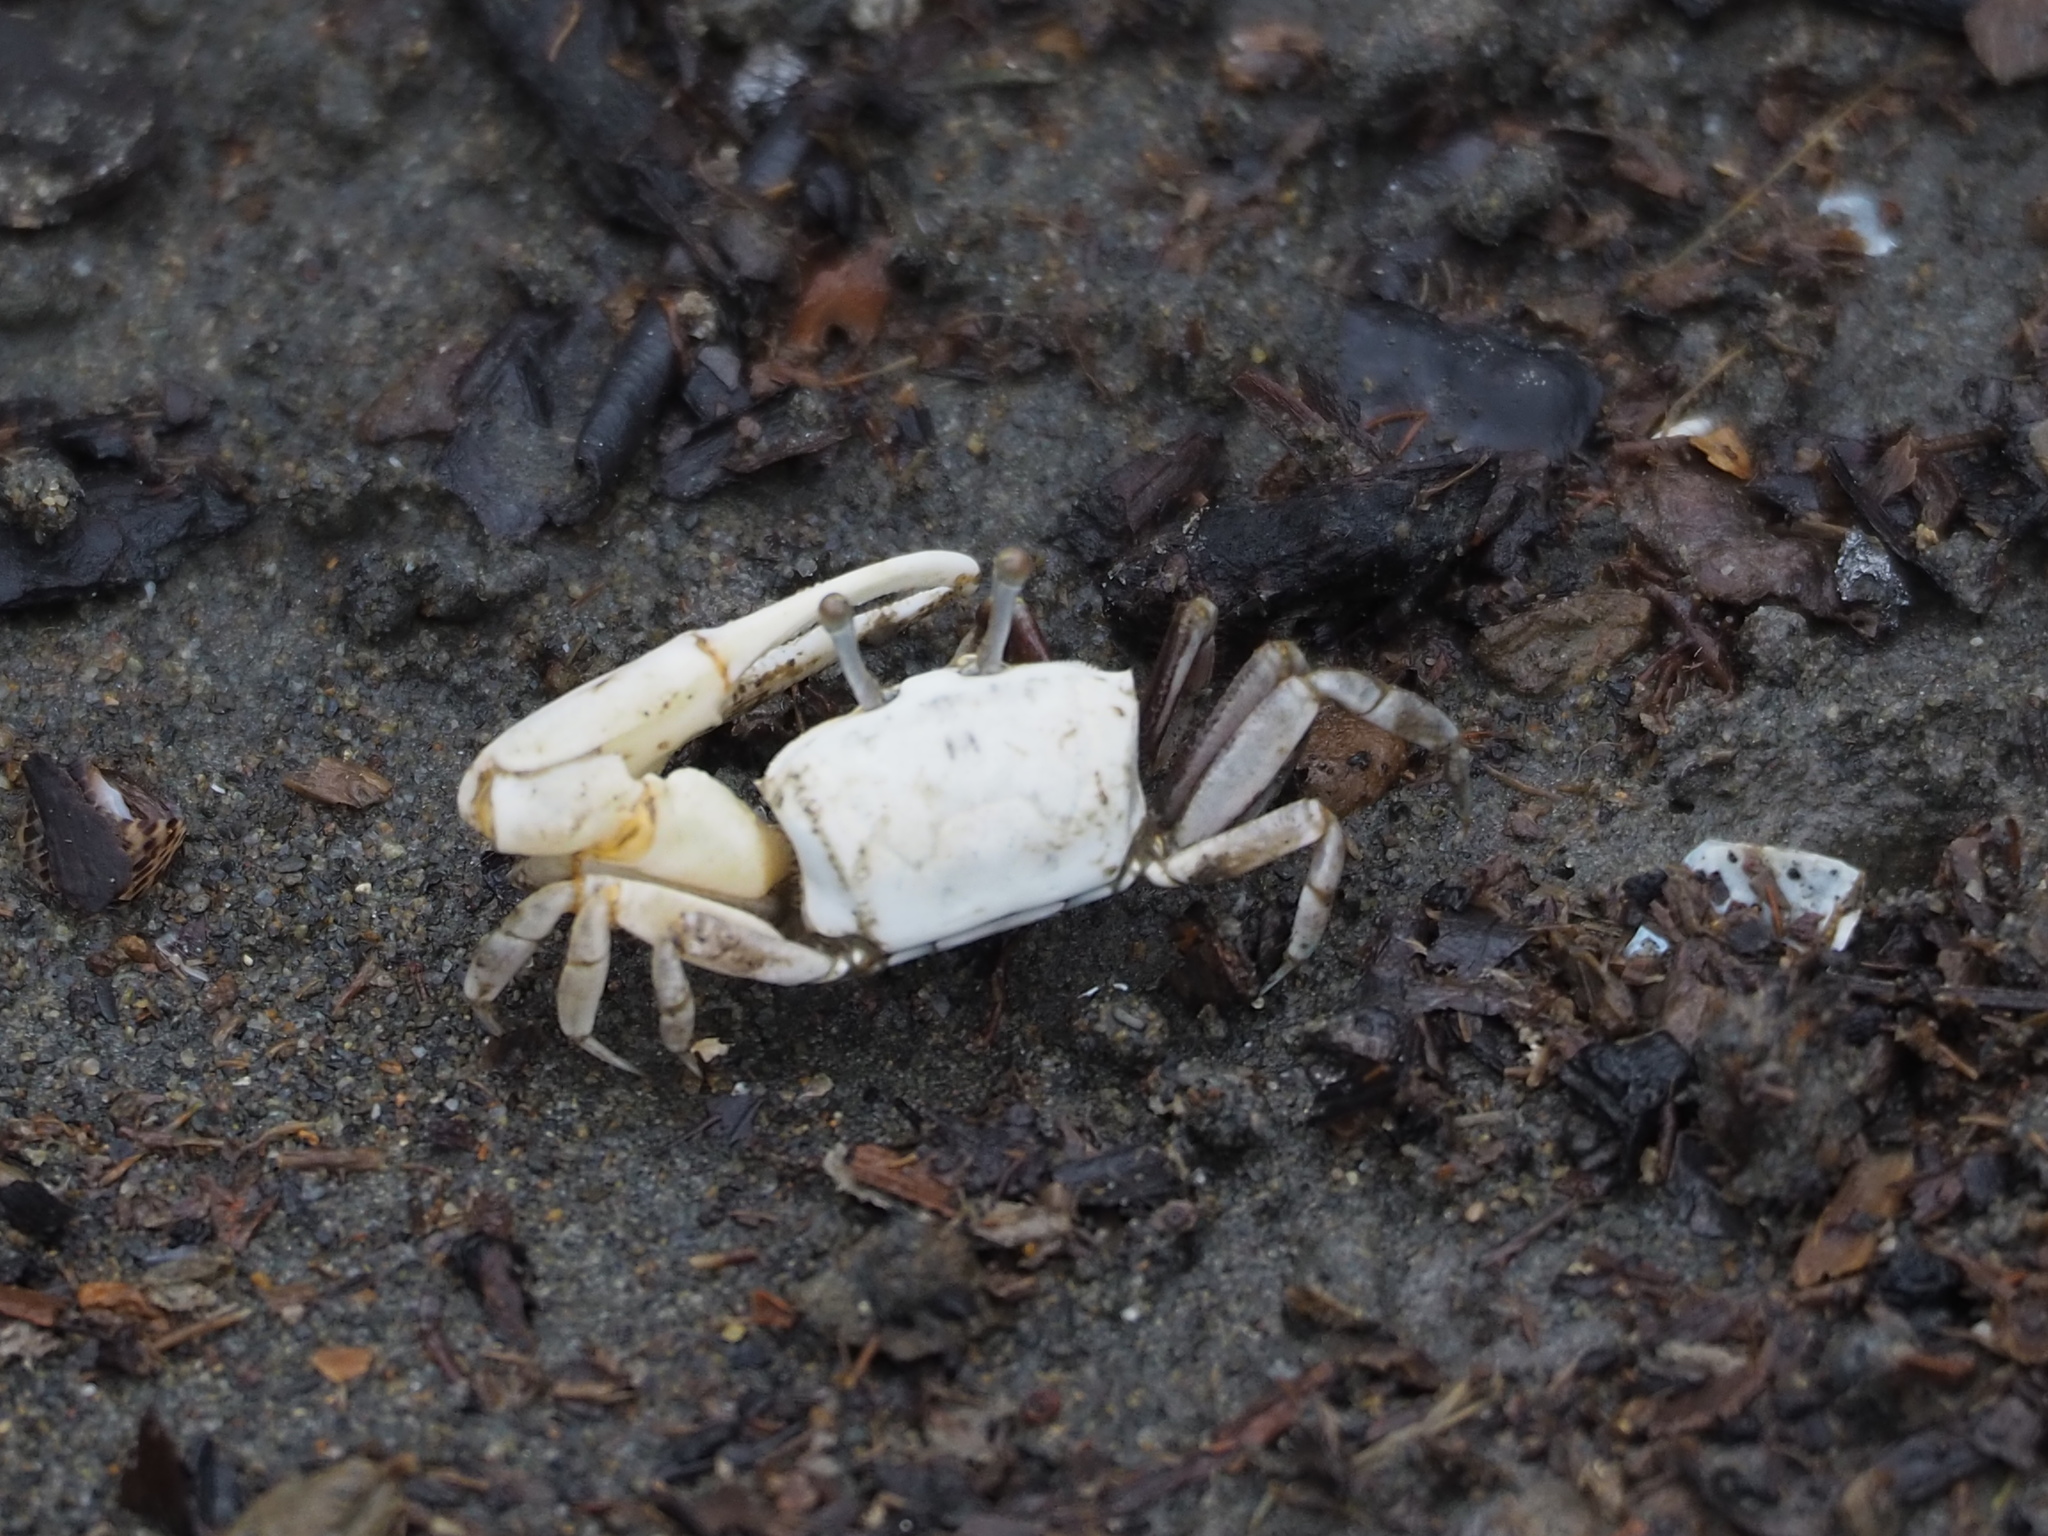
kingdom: Animalia
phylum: Arthropoda
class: Malacostraca
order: Decapoda
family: Ocypodidae
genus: Austruca
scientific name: Austruca lactea
